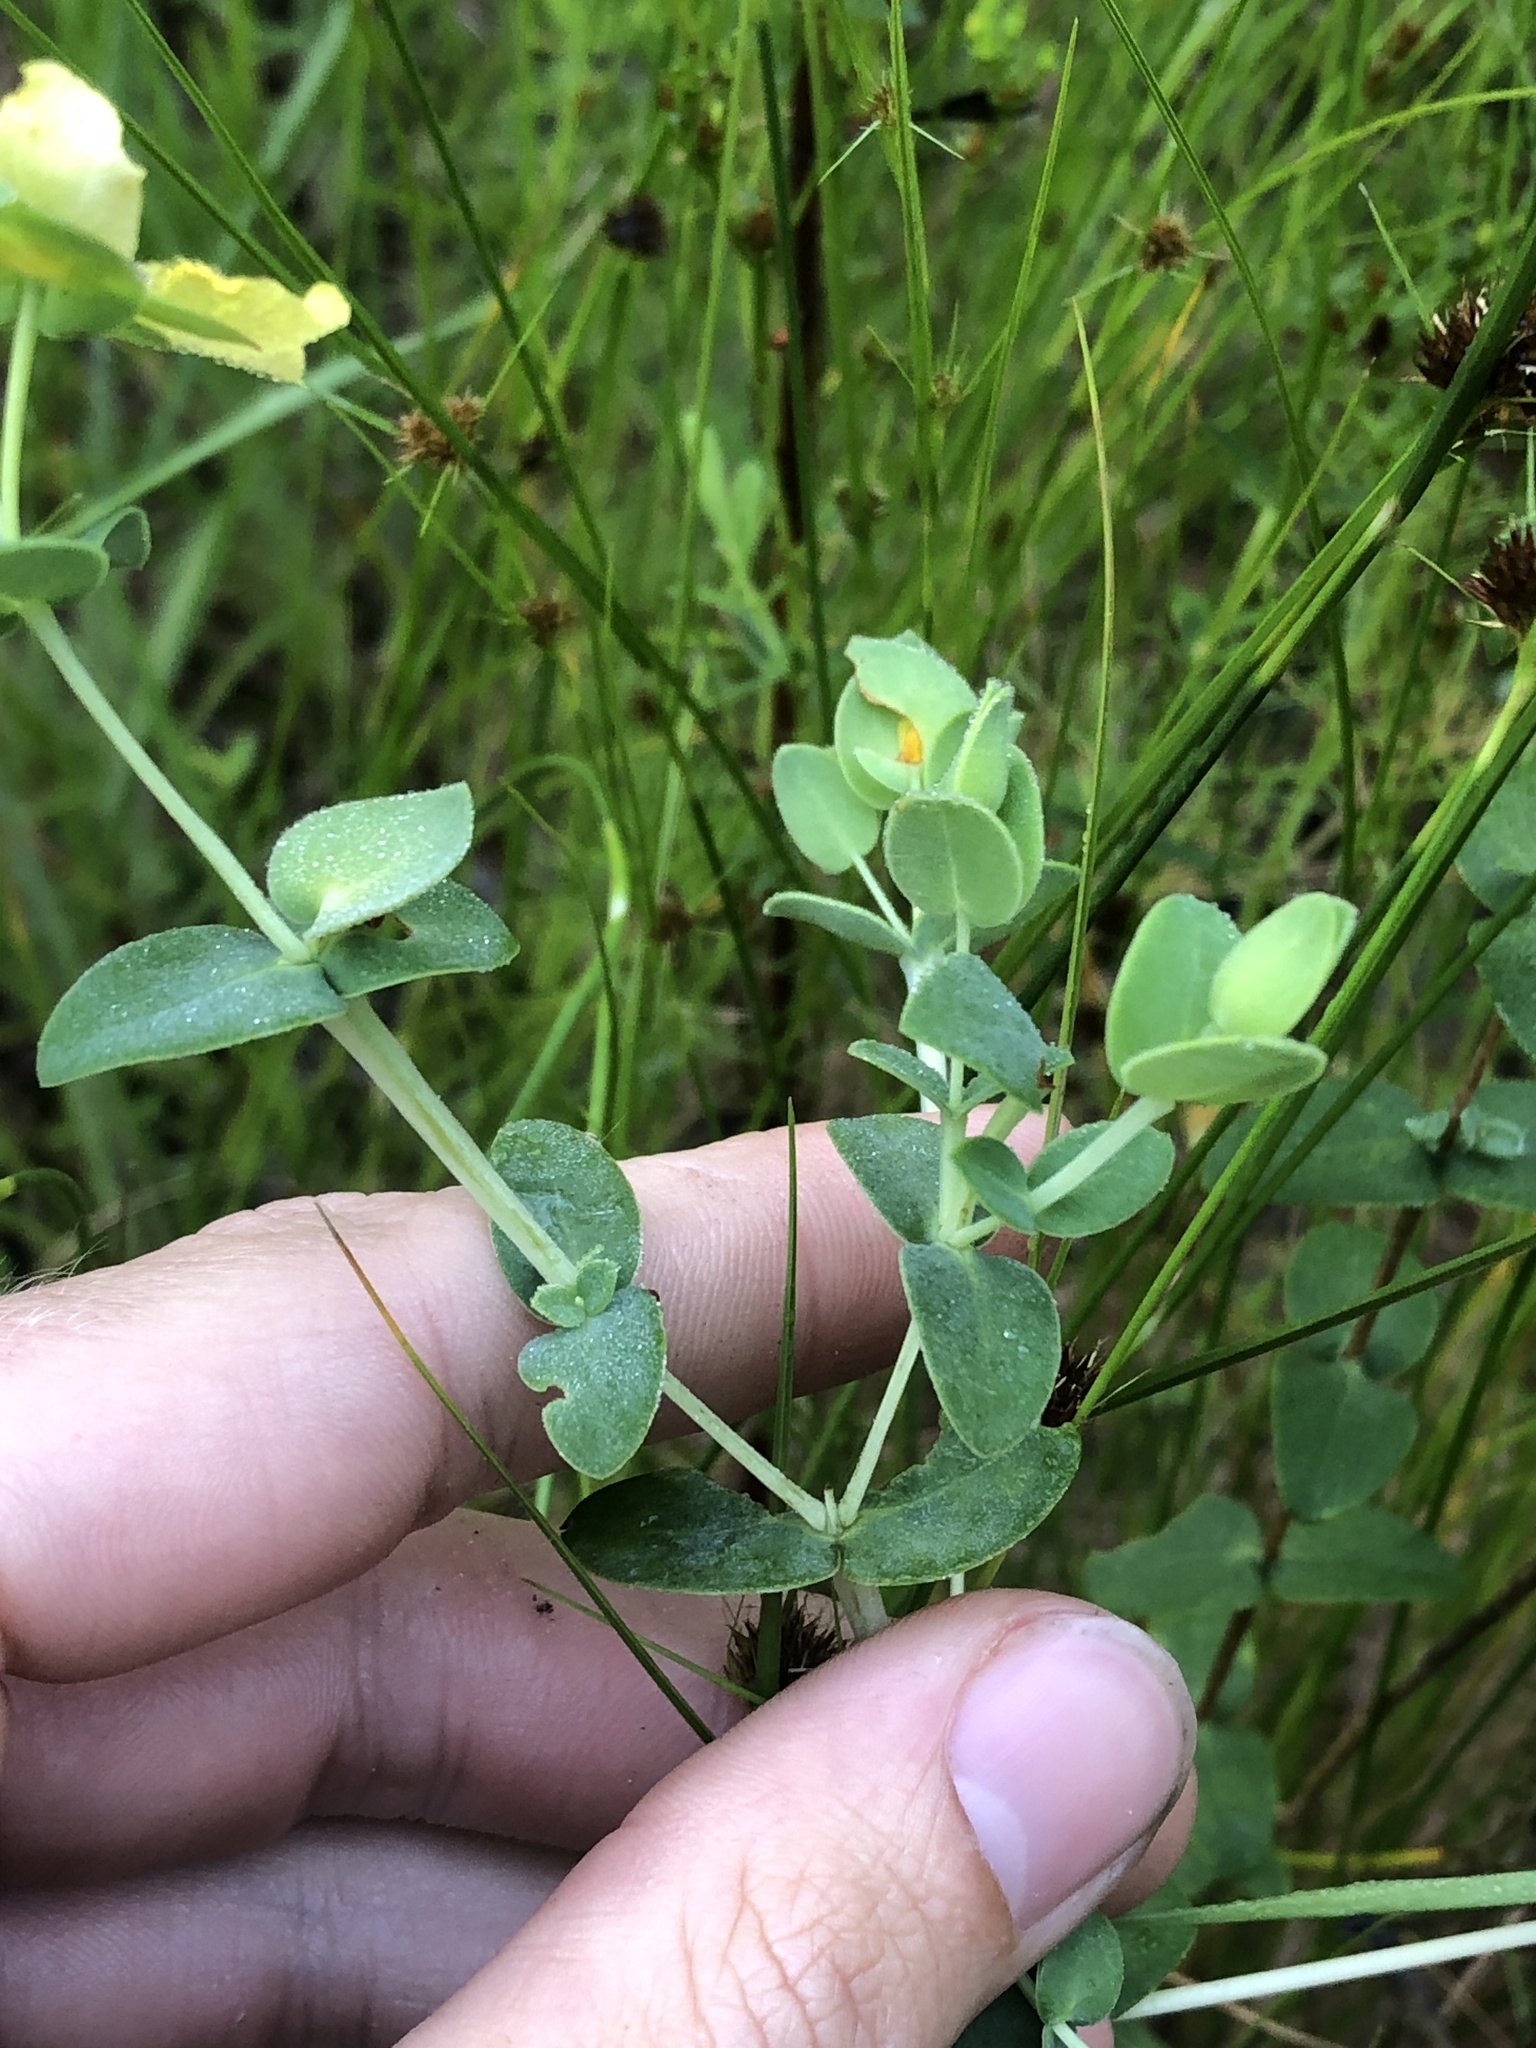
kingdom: Plantae
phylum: Tracheophyta
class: Magnoliopsida
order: Malpighiales
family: Hypericaceae
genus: Hypericum
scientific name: Hypericum tetrapetalum
